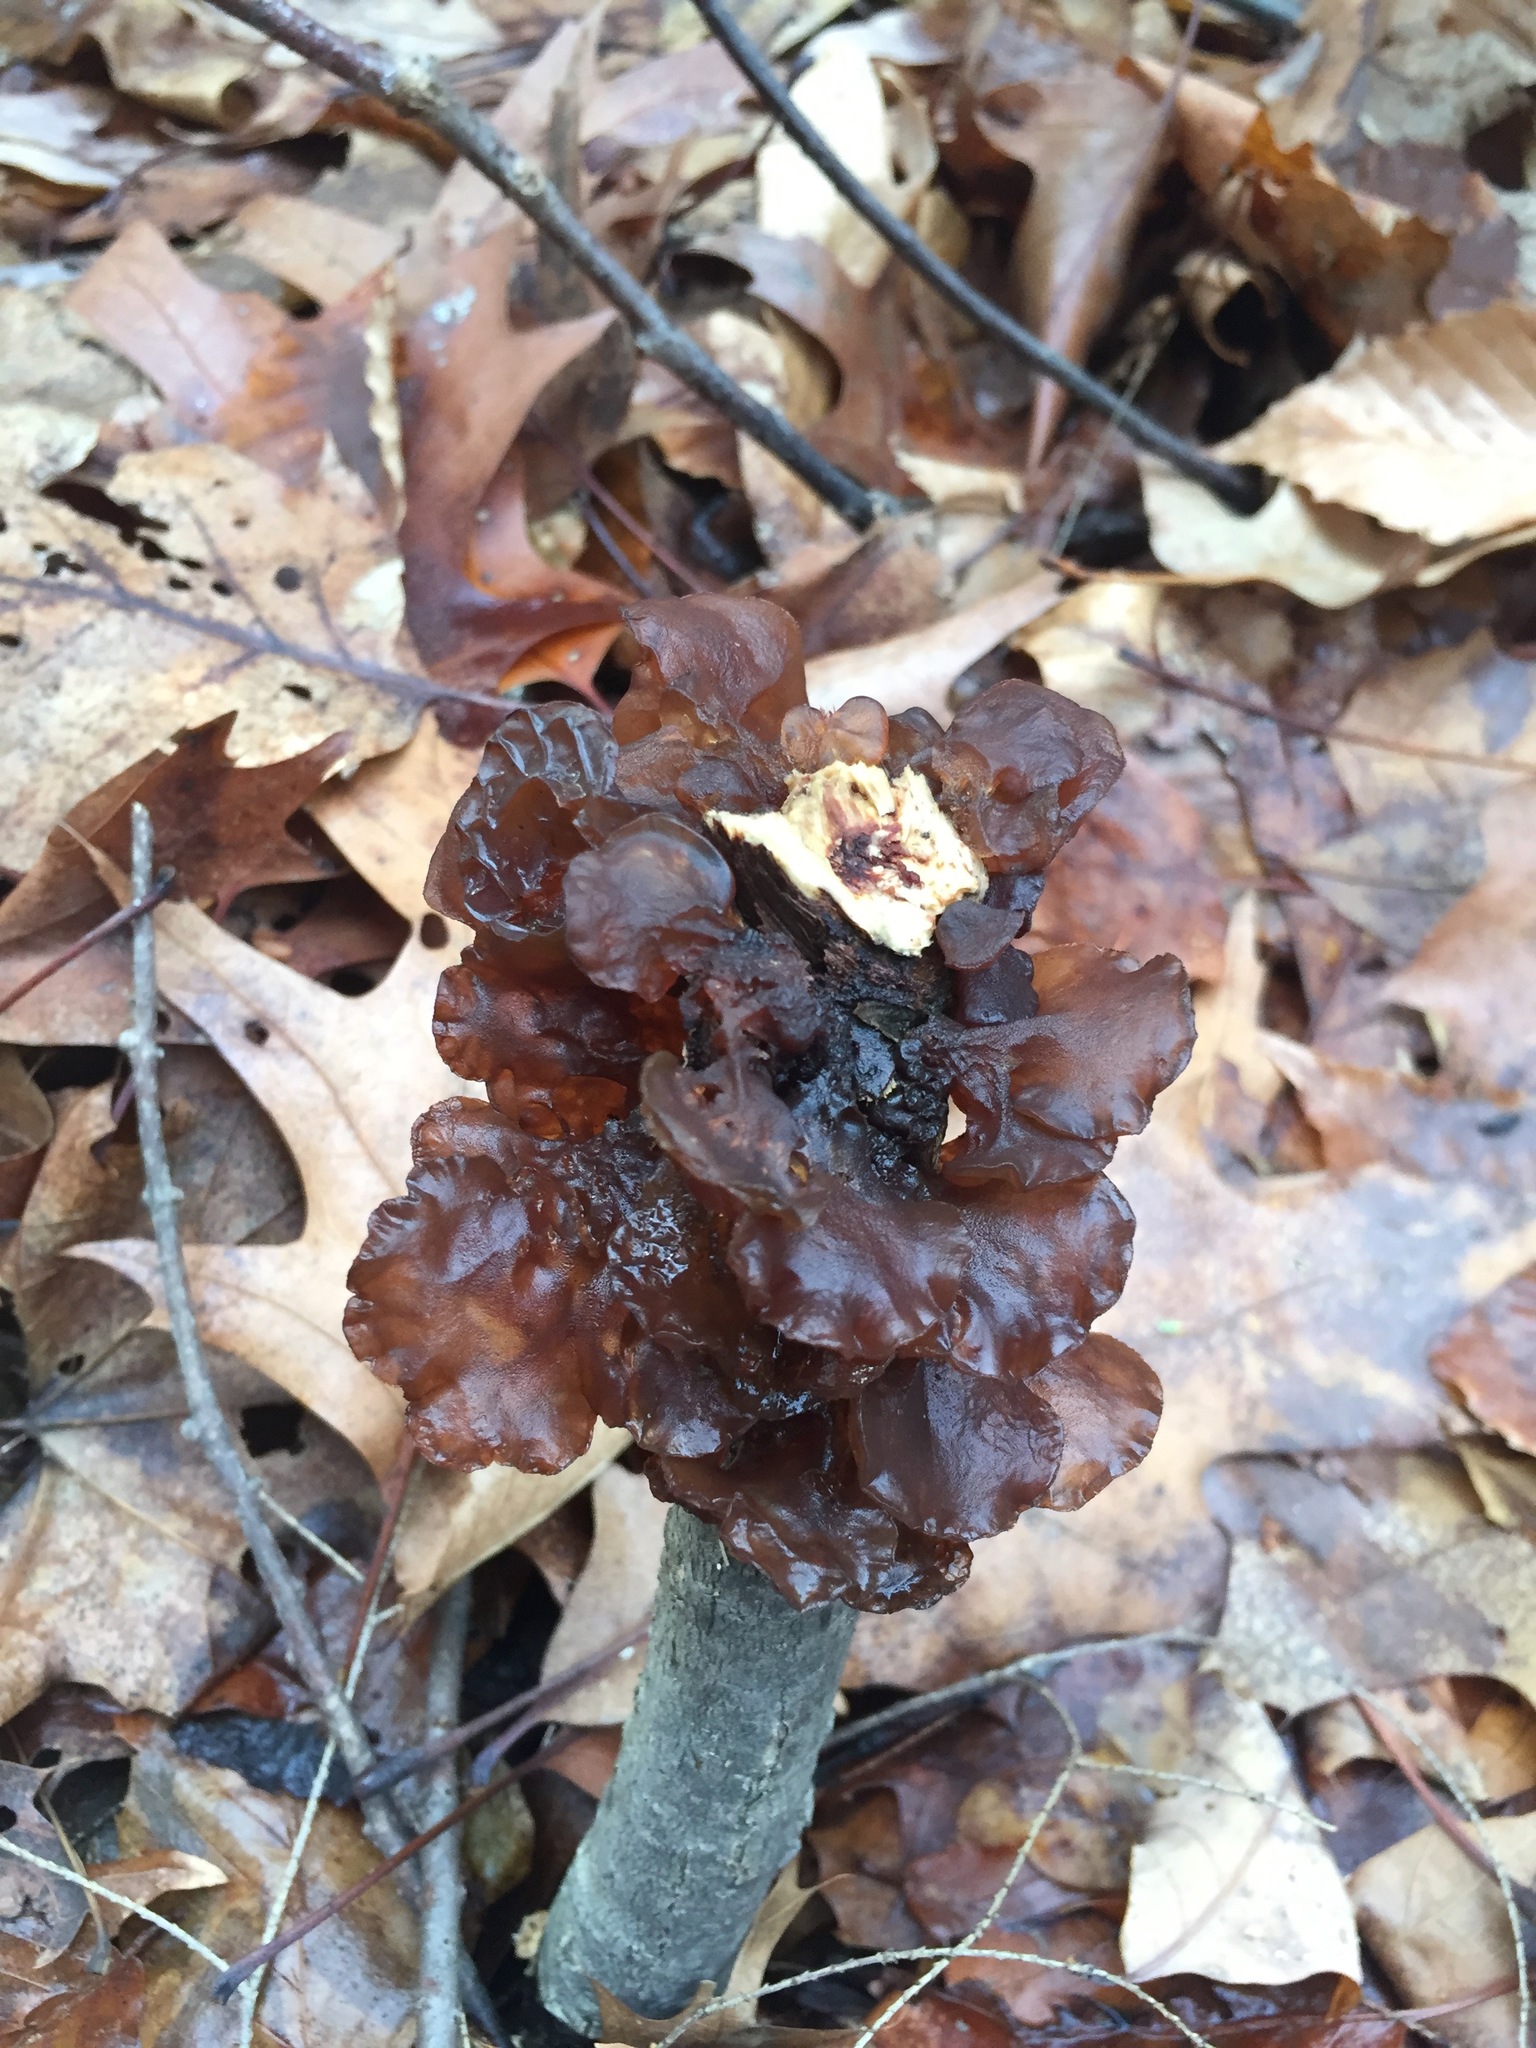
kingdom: Fungi
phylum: Basidiomycota
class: Agaricomycetes
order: Auriculariales
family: Auriculariaceae
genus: Exidia
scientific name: Exidia
